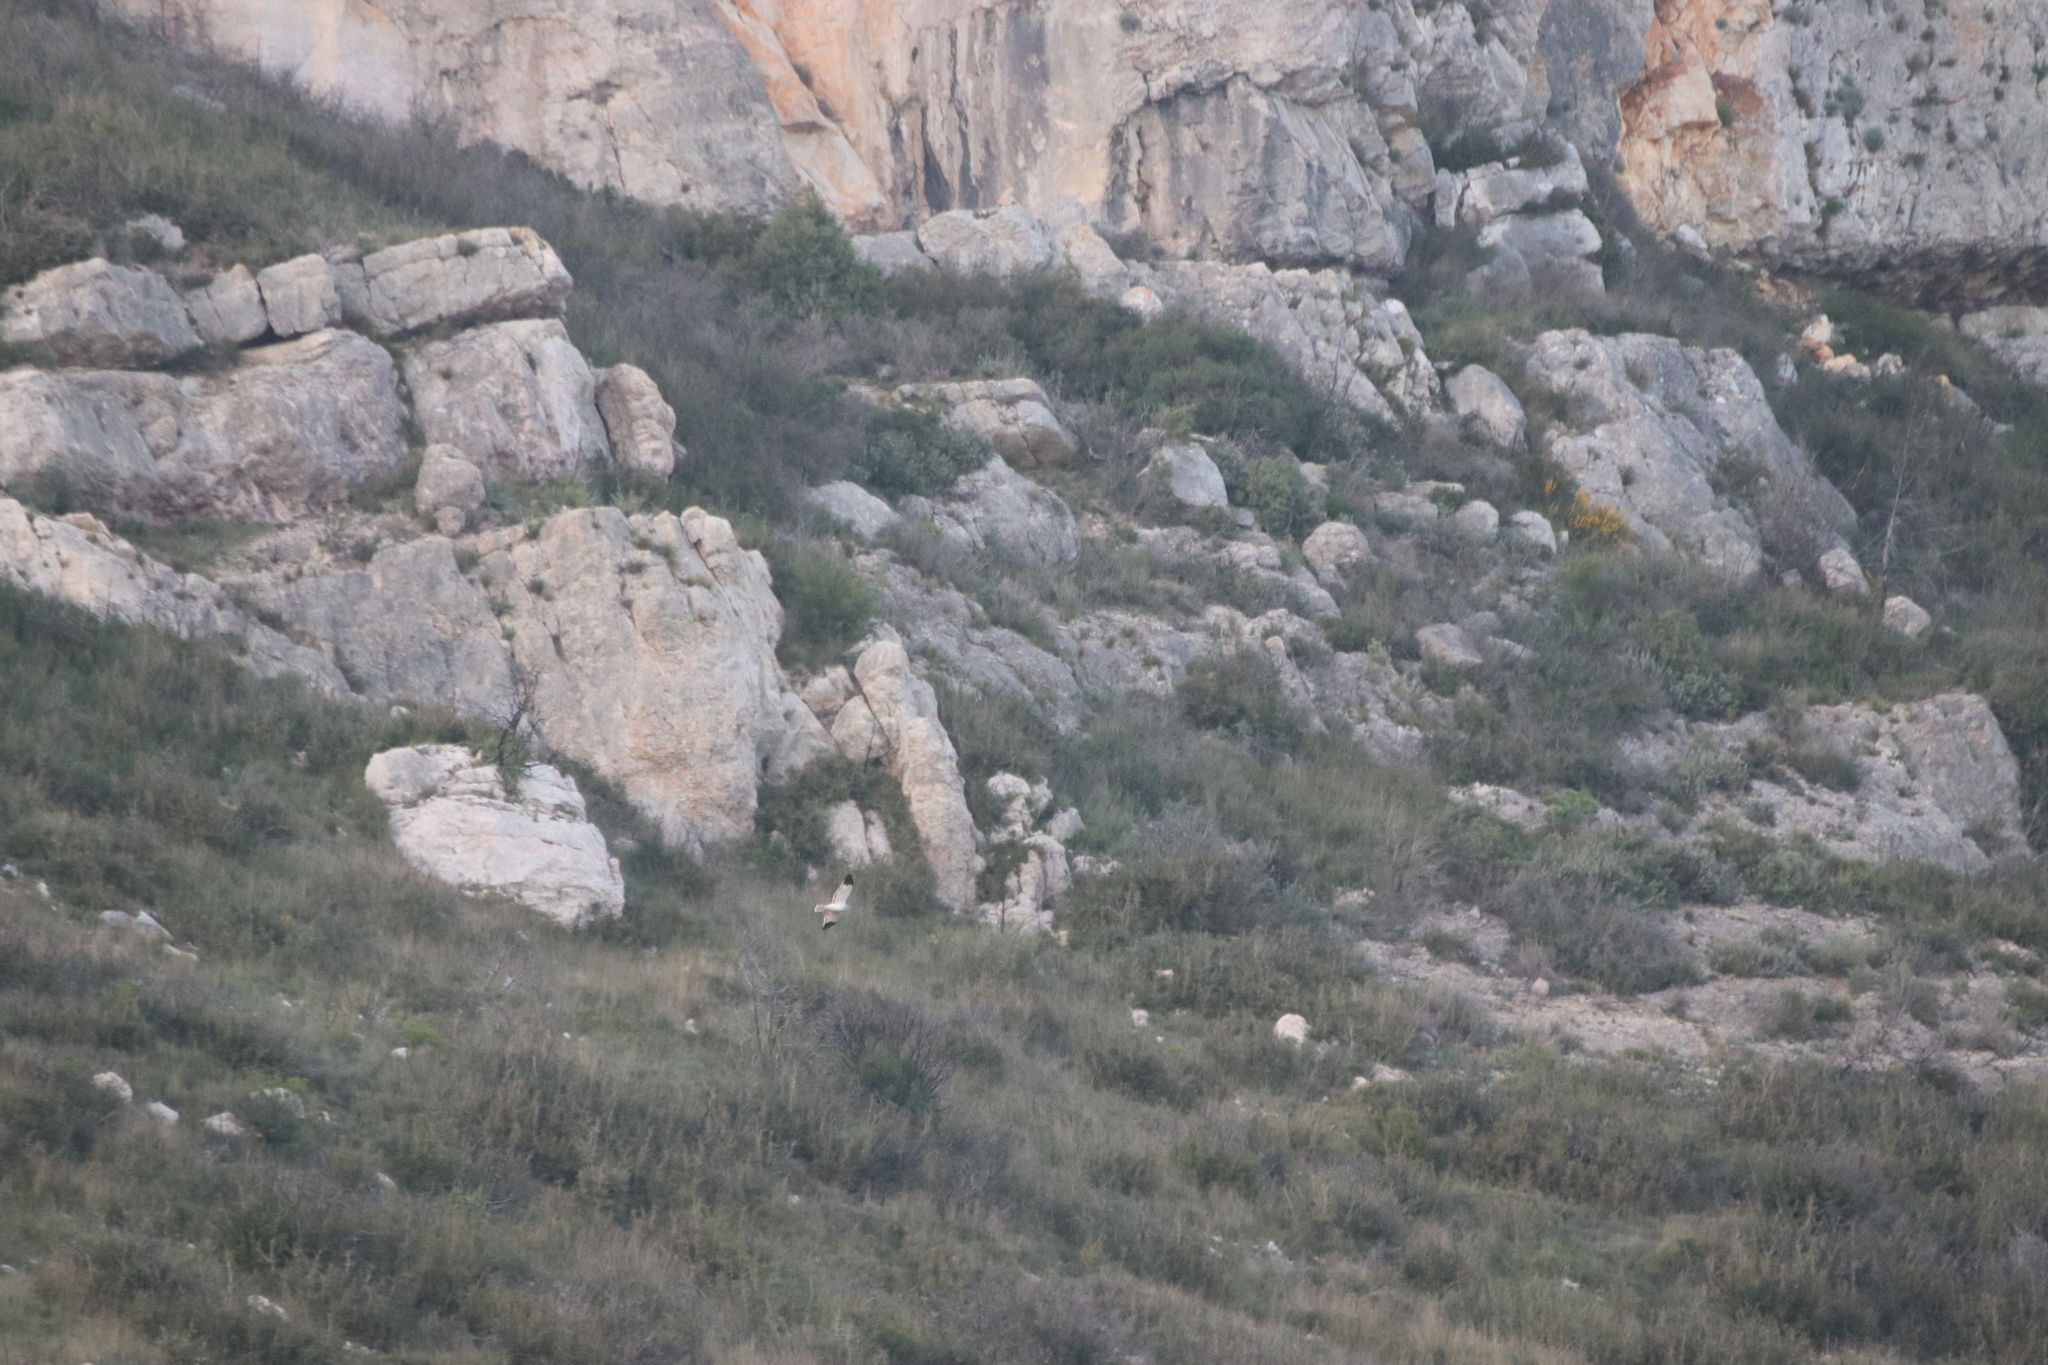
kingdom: Animalia
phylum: Chordata
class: Aves
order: Accipitriformes
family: Accipitridae
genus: Circus
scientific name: Circus cyaneus
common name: Hen harrier
